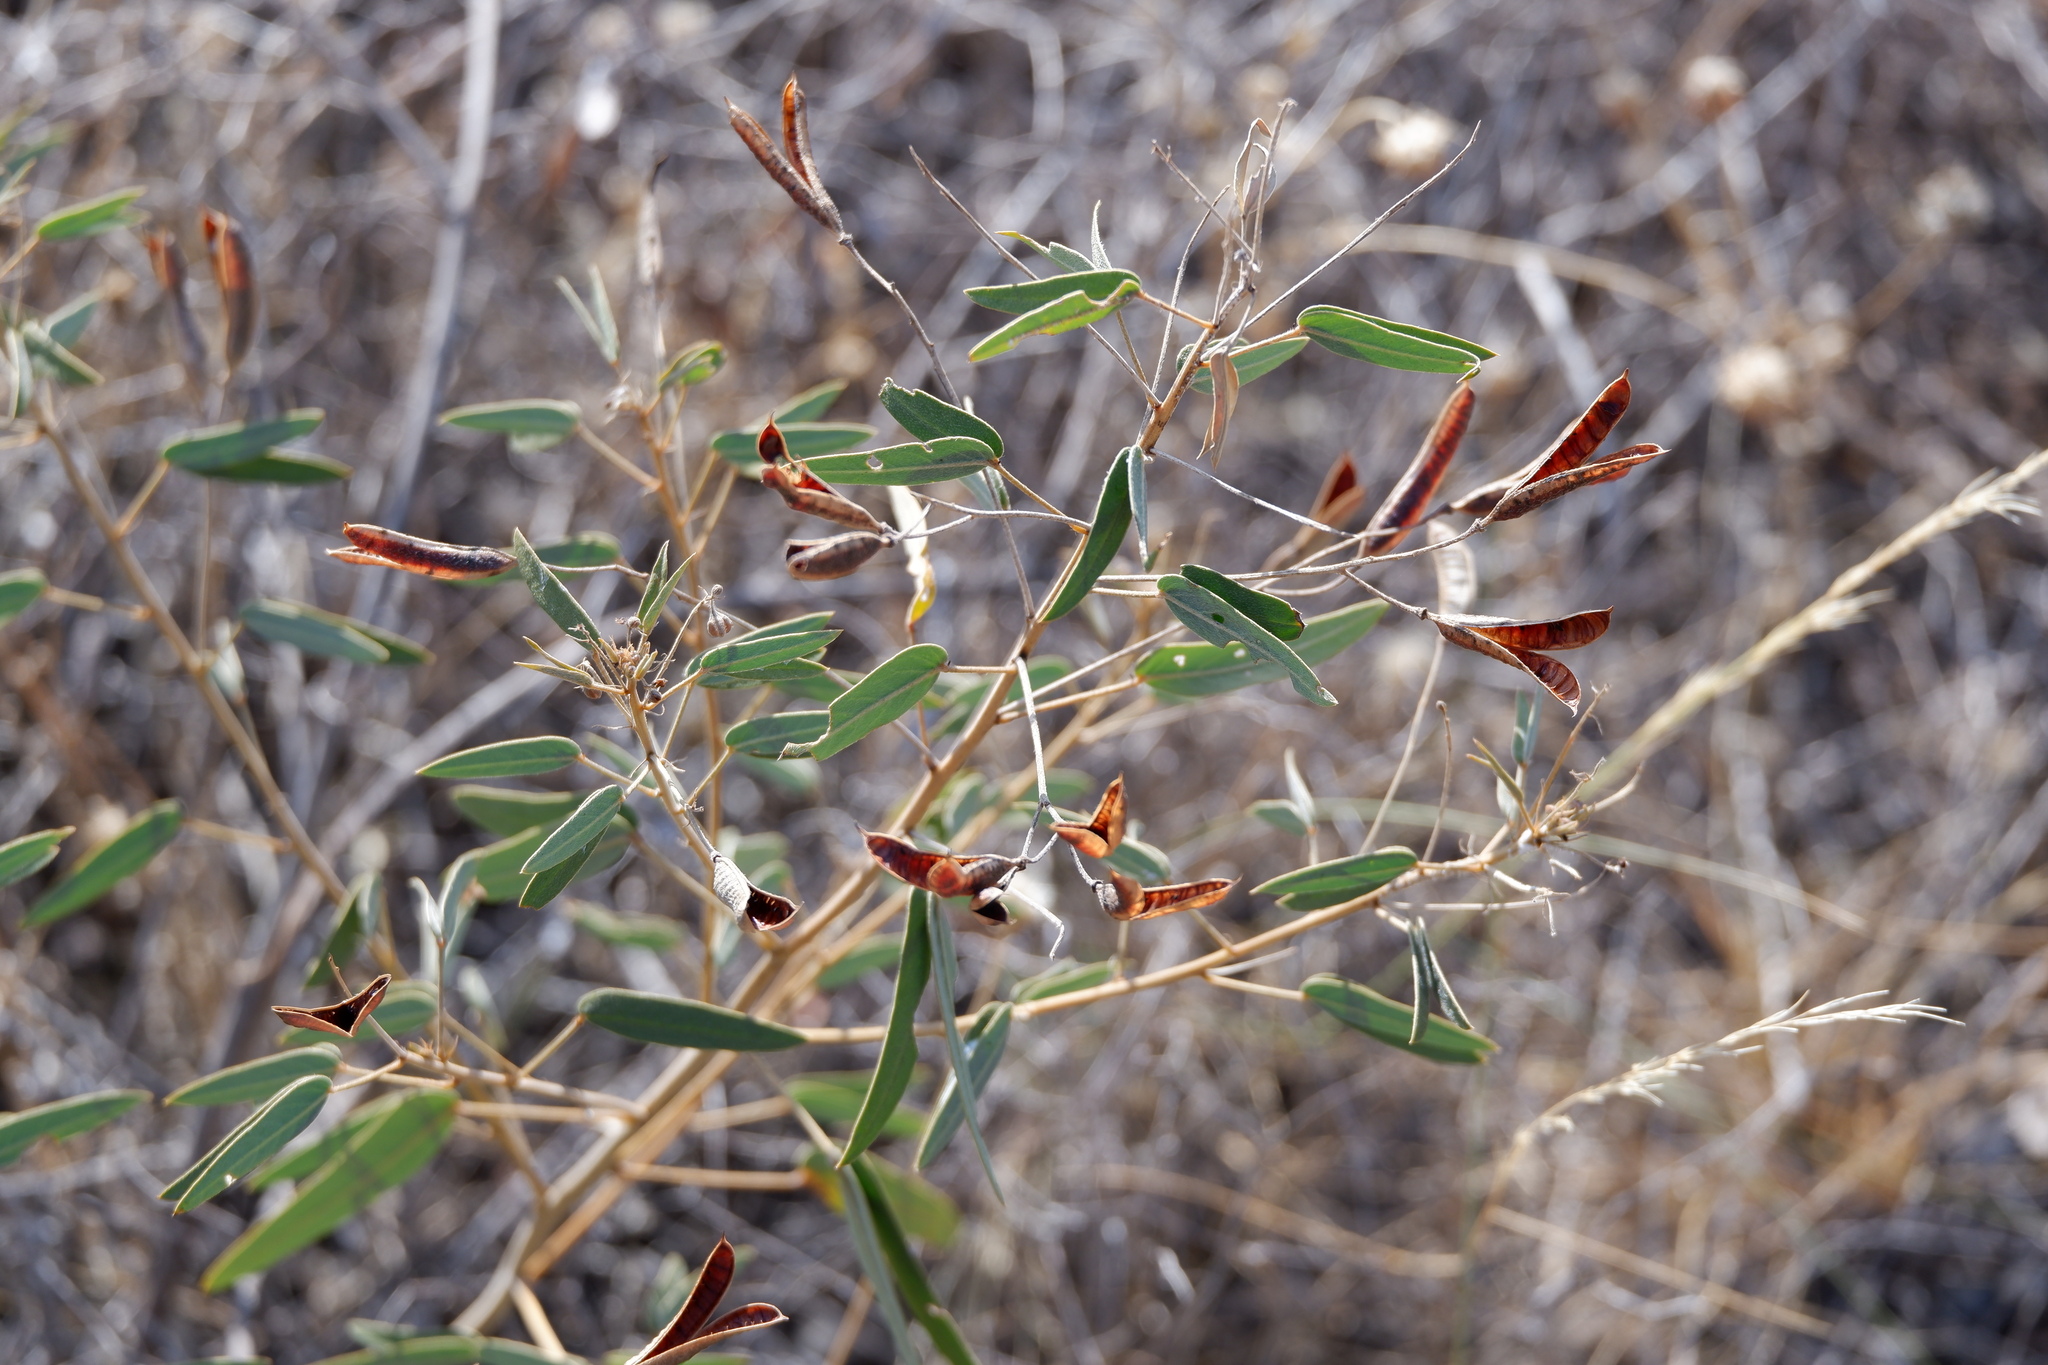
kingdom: Plantae
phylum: Tracheophyta
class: Magnoliopsida
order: Fabales
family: Fabaceae
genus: Senna
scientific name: Senna roemeriana
